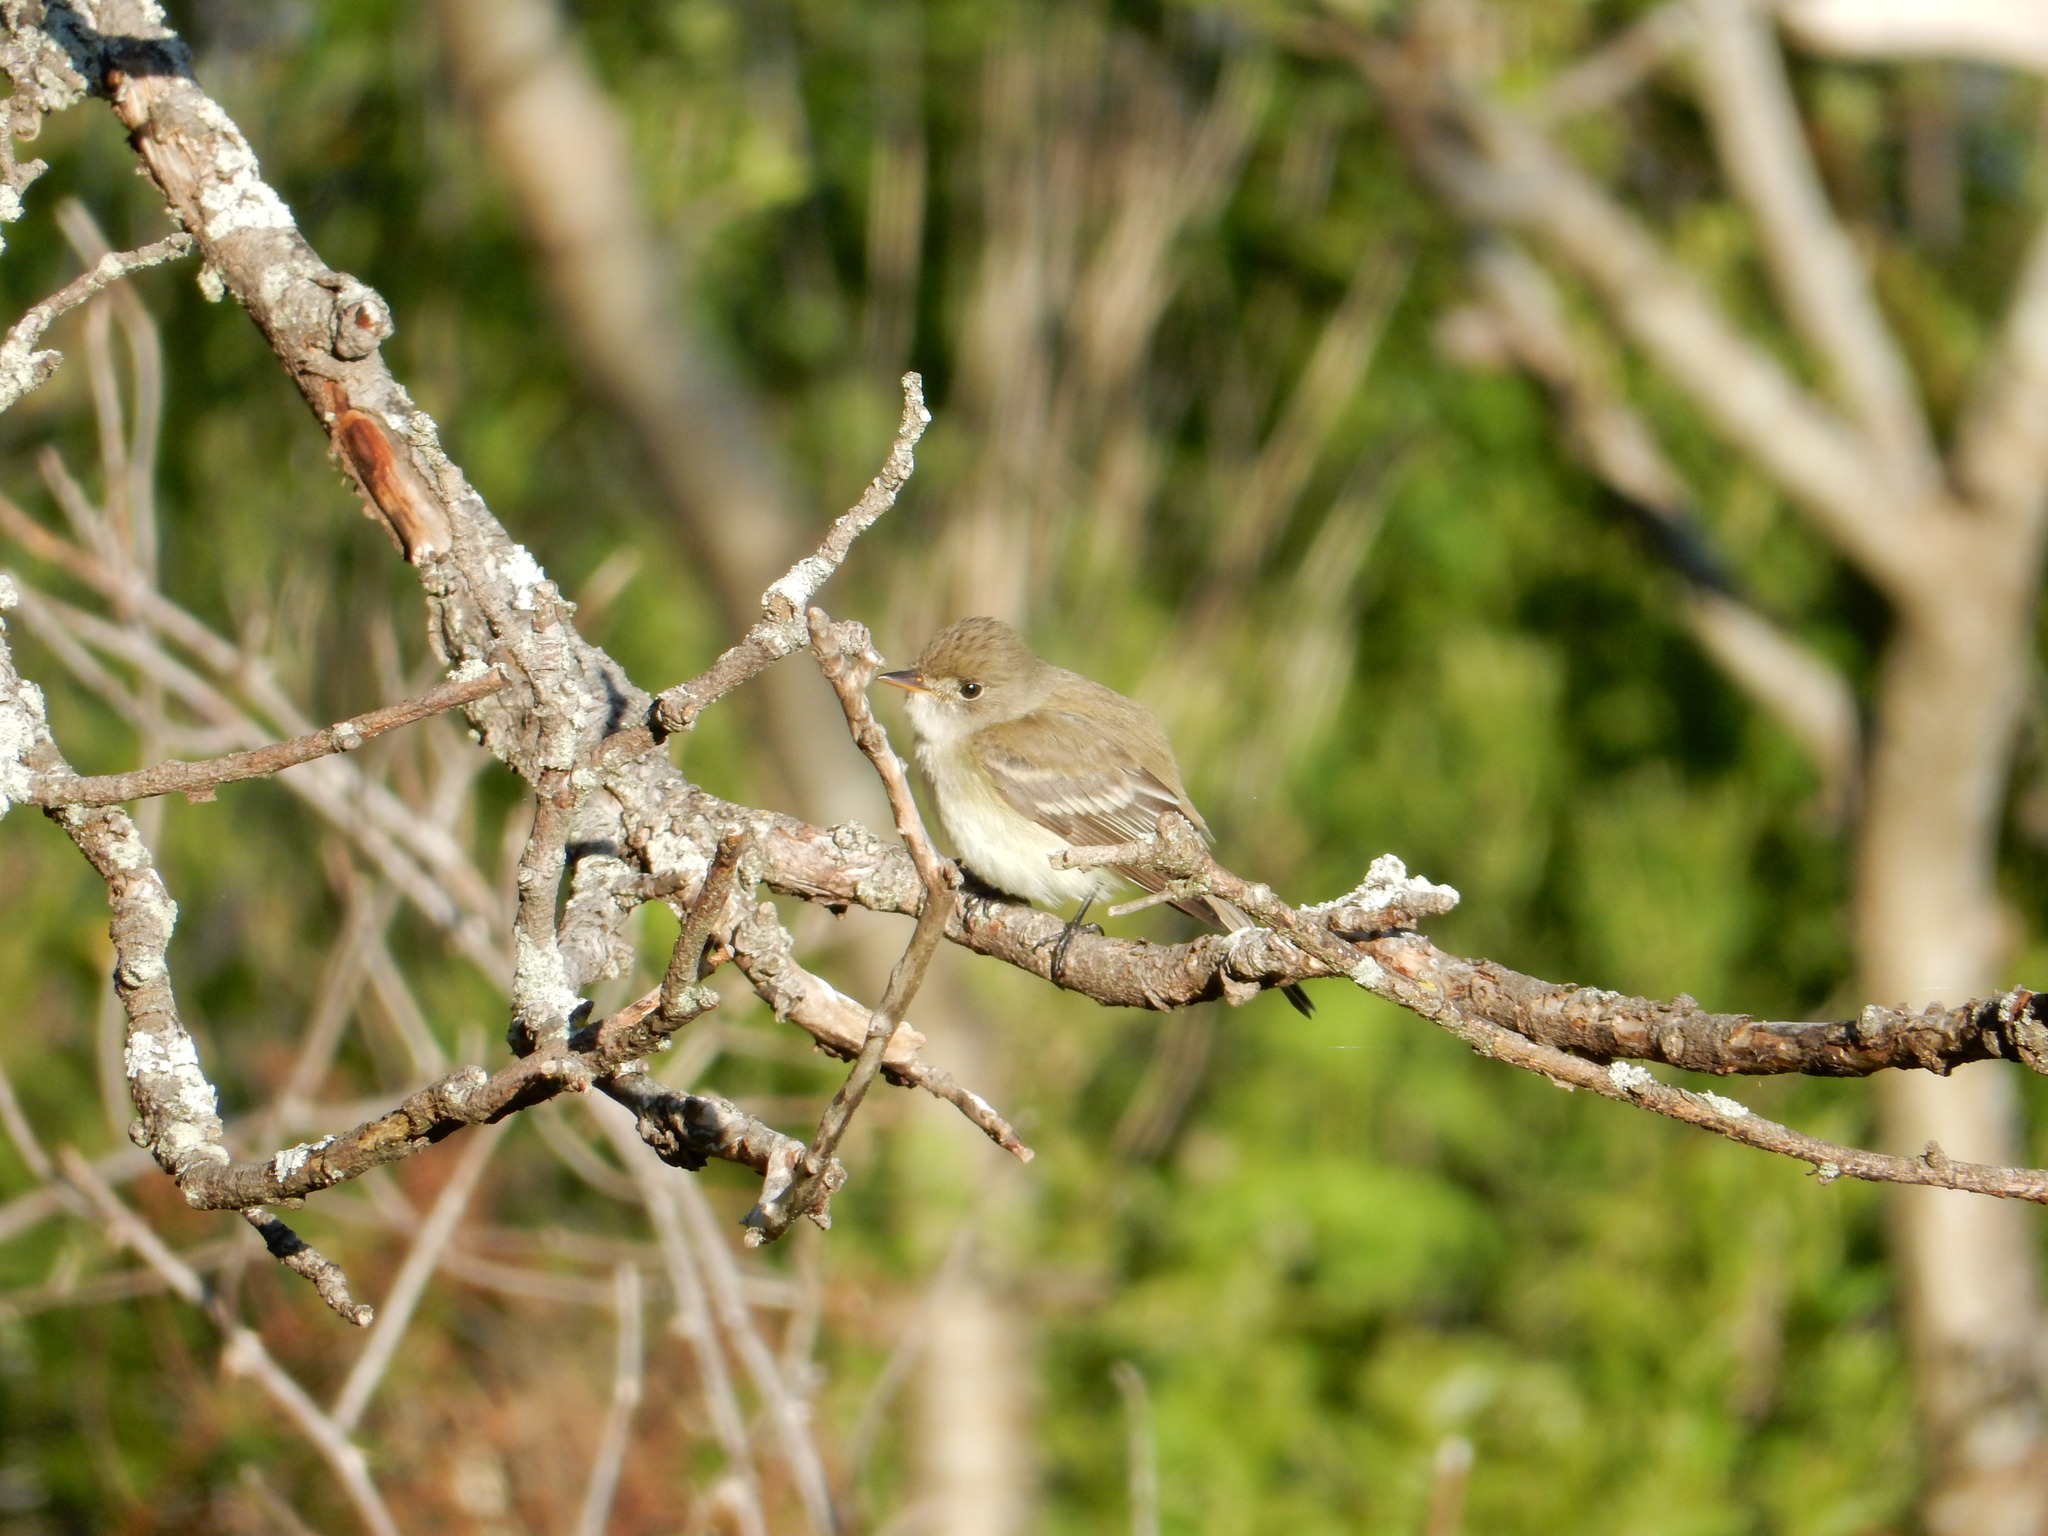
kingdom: Animalia
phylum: Chordata
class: Aves
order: Passeriformes
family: Tyrannidae
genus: Empidonax
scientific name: Empidonax
